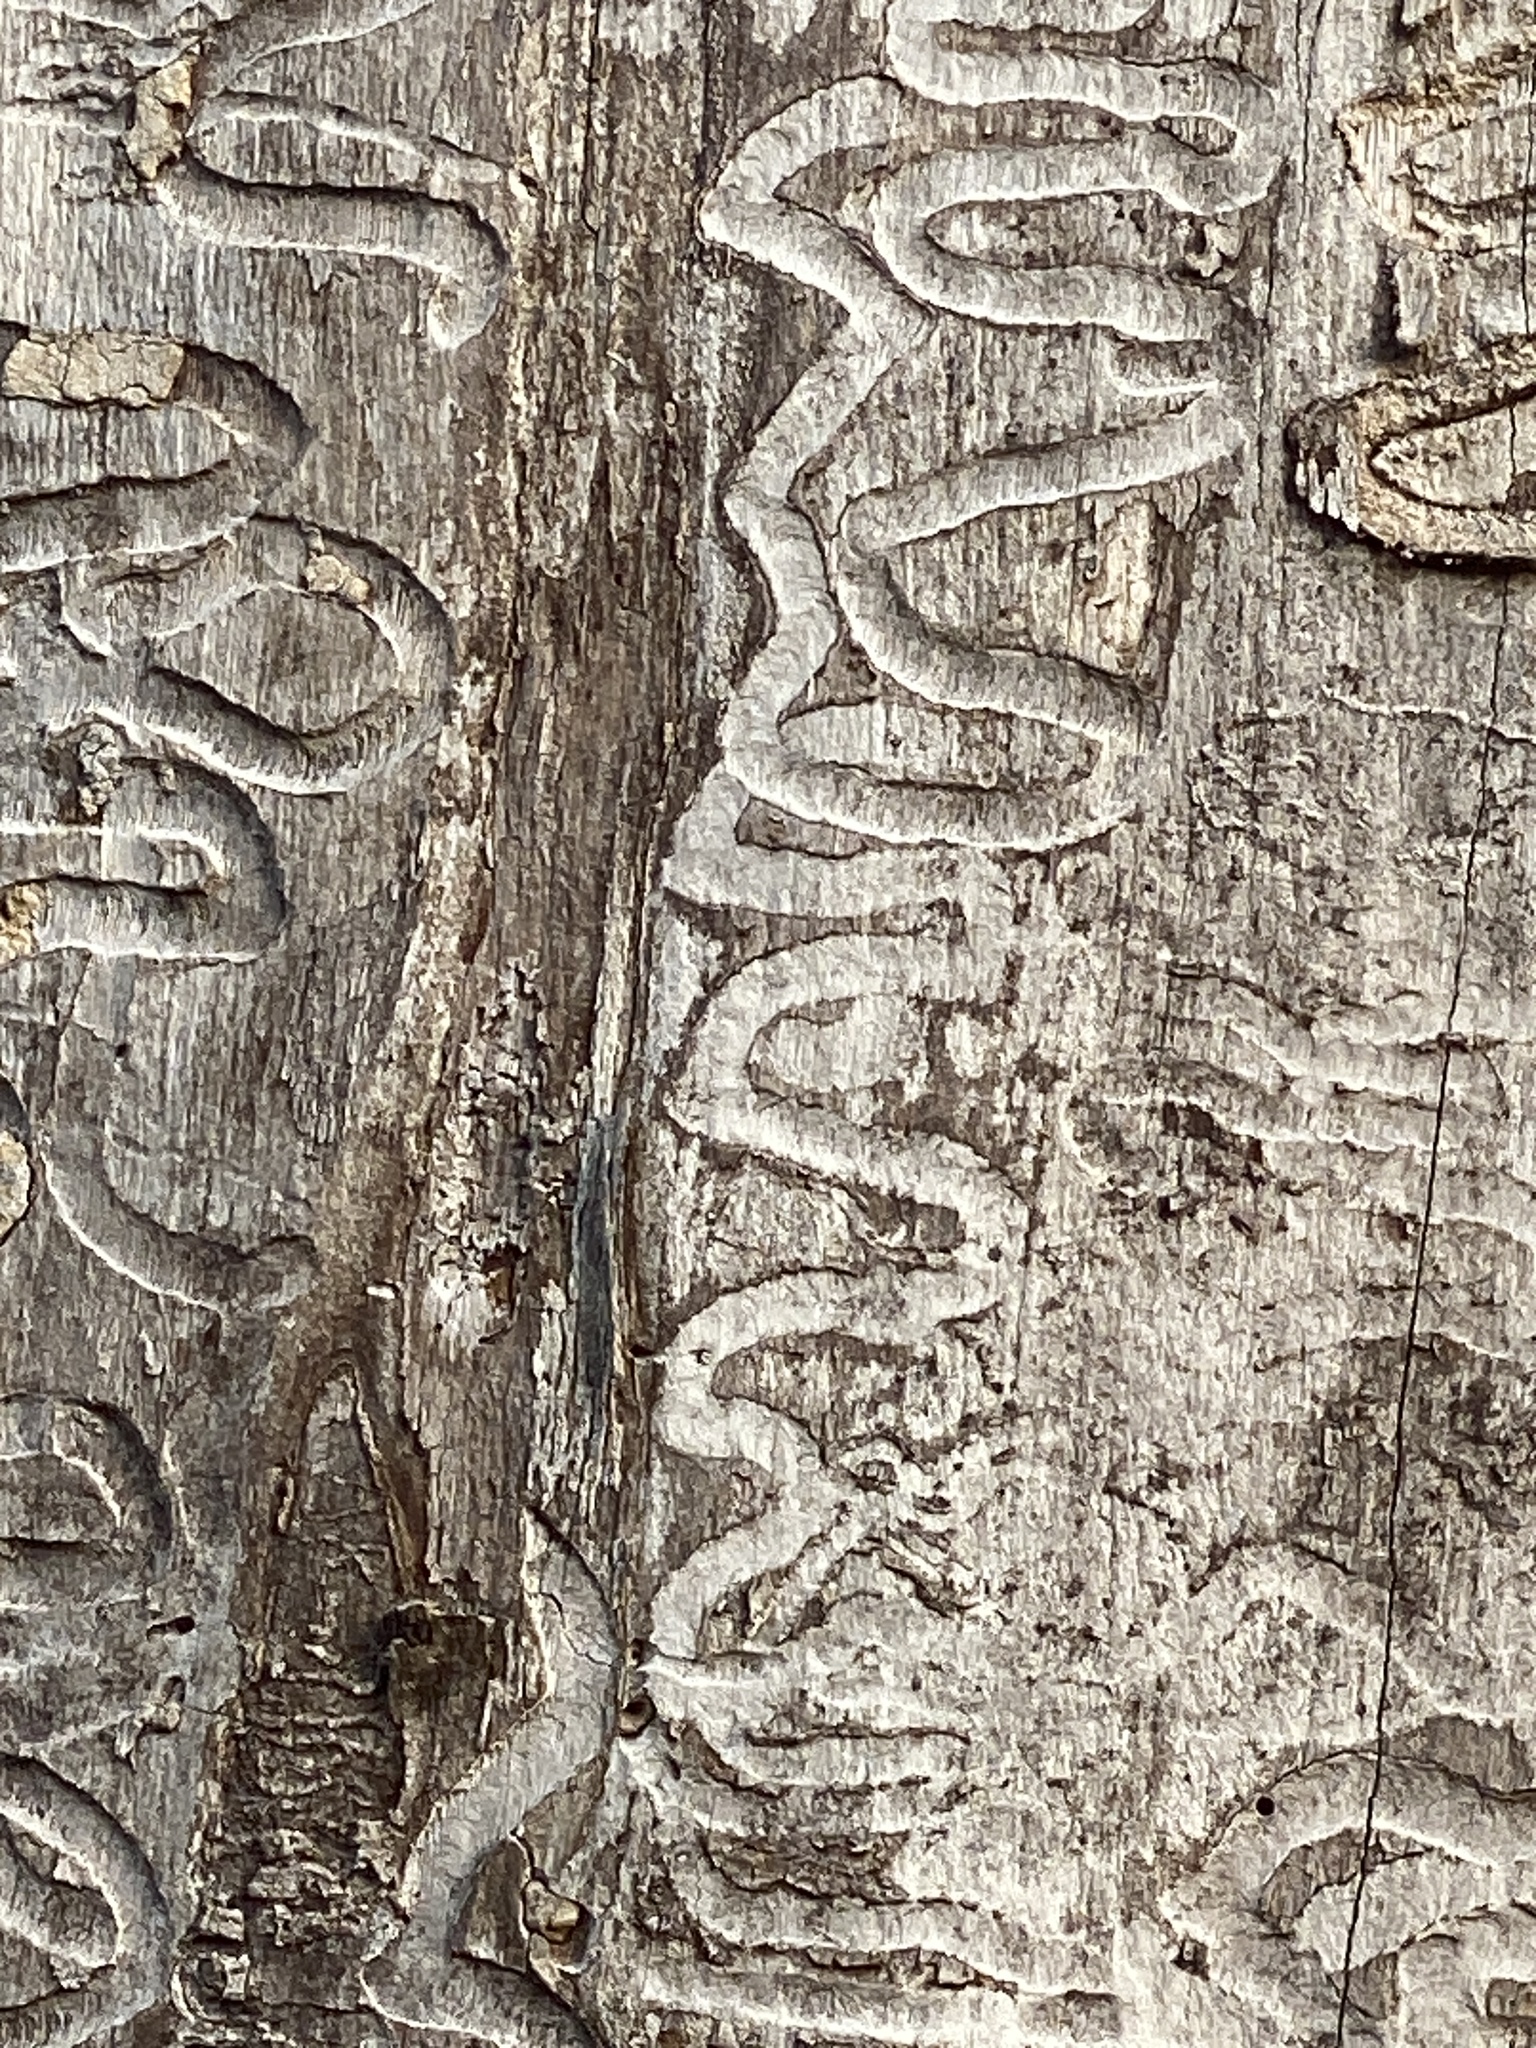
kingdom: Animalia
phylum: Arthropoda
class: Insecta
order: Coleoptera
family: Buprestidae
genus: Agrilus
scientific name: Agrilus planipennis
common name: Emerald ash borer
